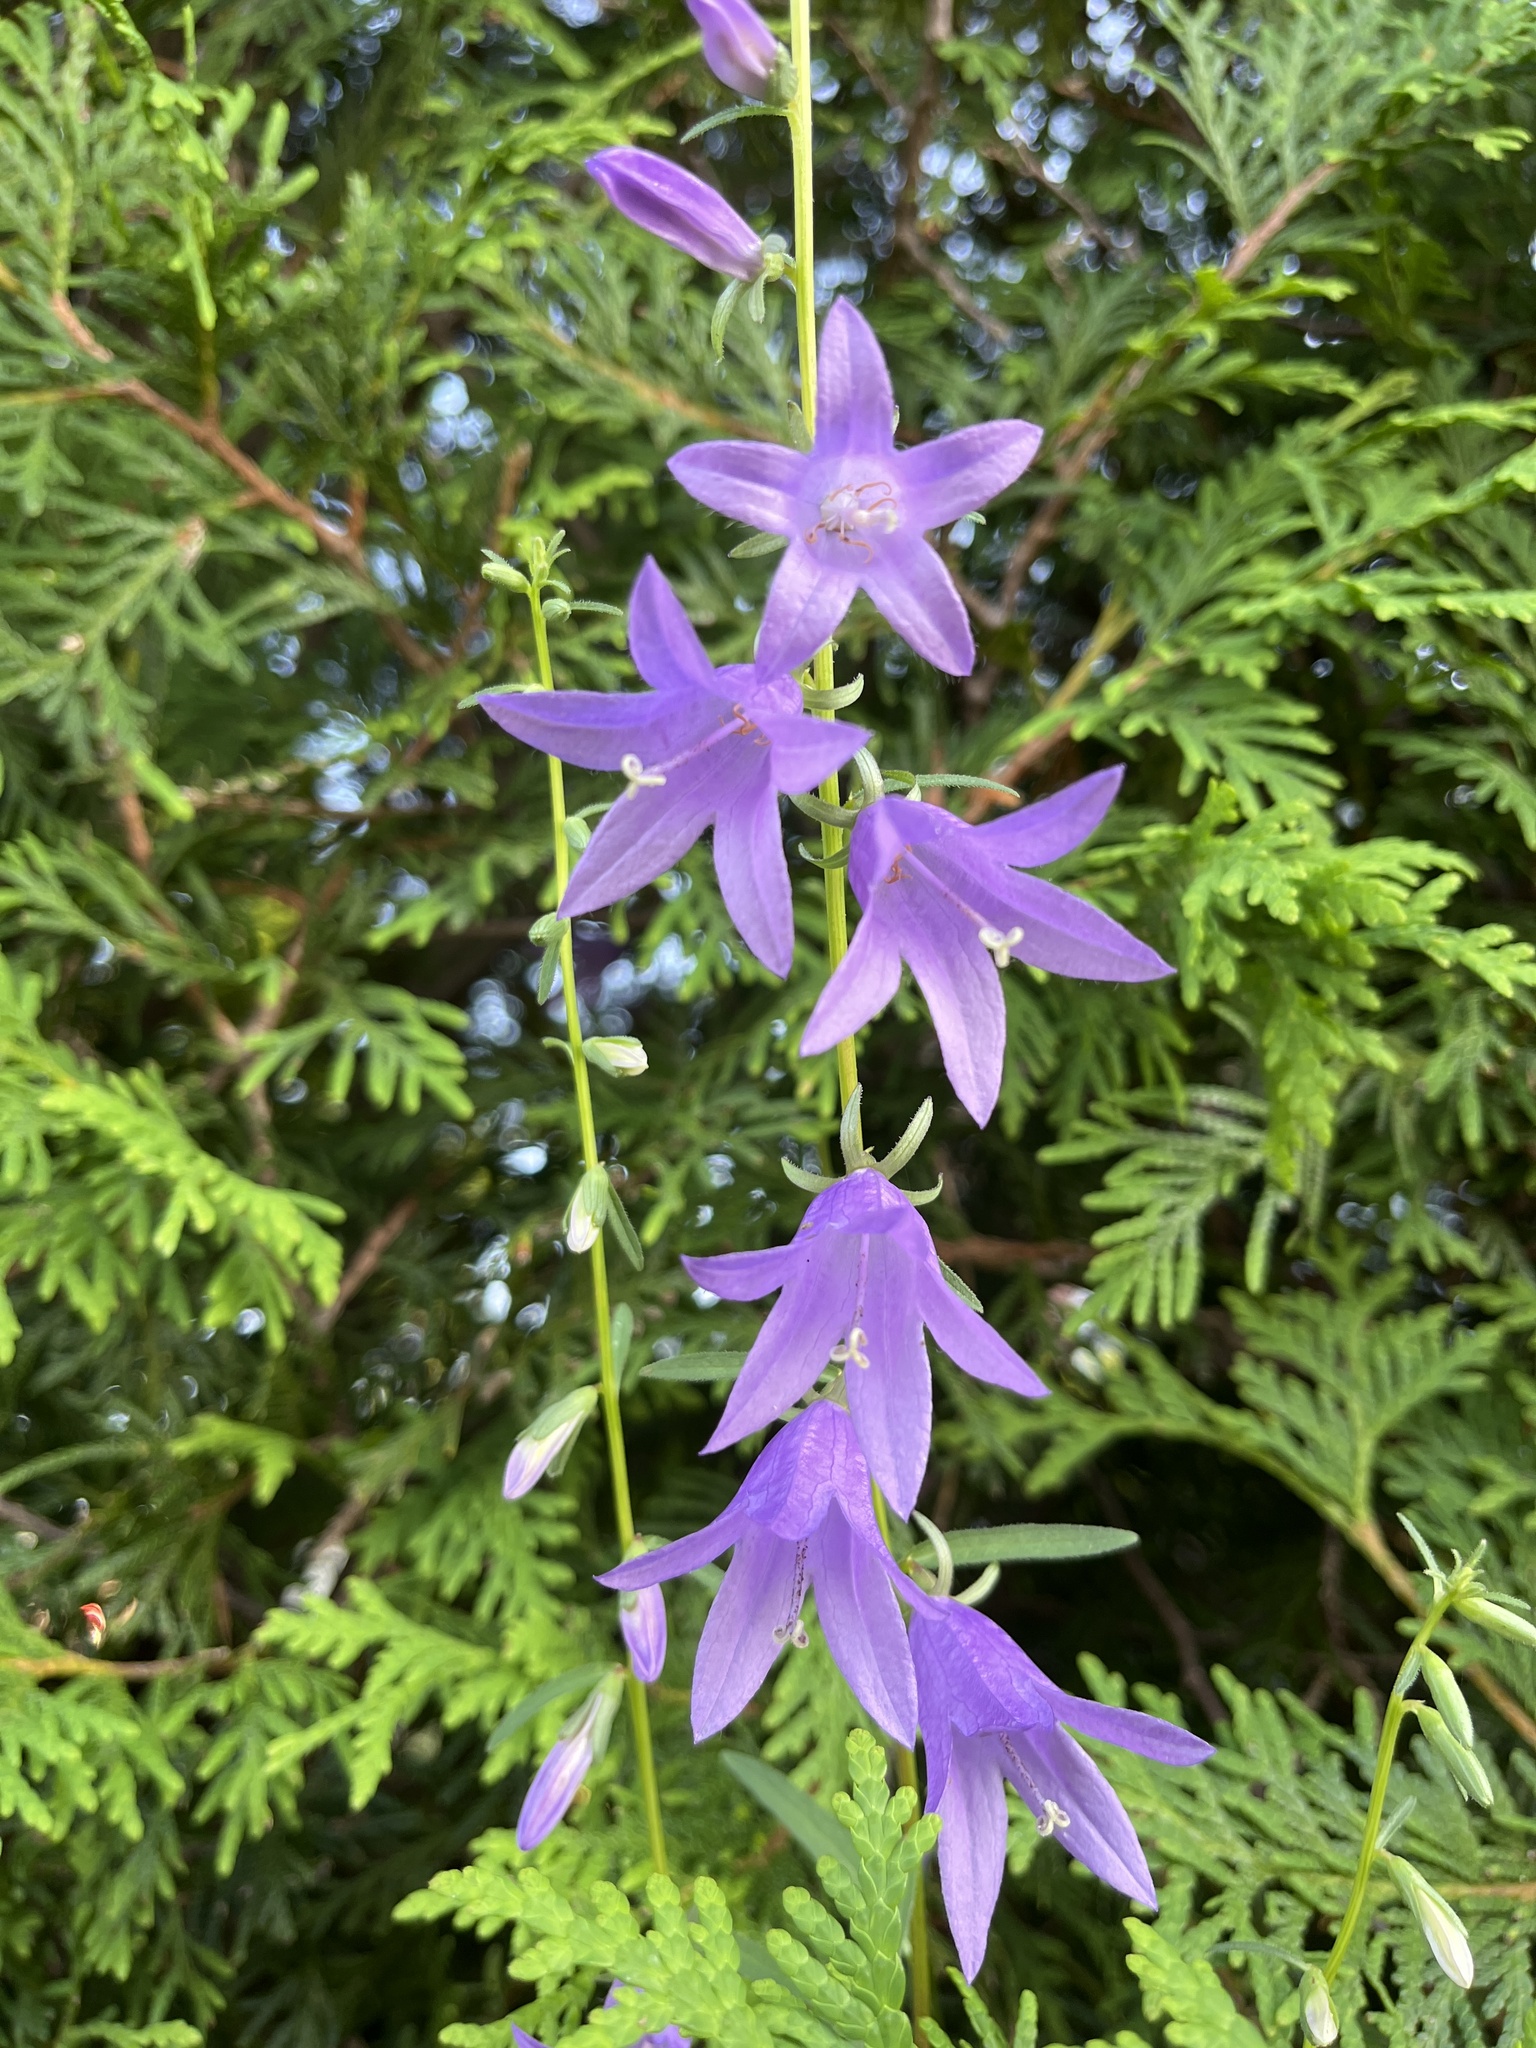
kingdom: Plantae
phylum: Tracheophyta
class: Magnoliopsida
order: Asterales
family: Campanulaceae
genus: Campanula
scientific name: Campanula rapunculoides
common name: Creeping bellflower
